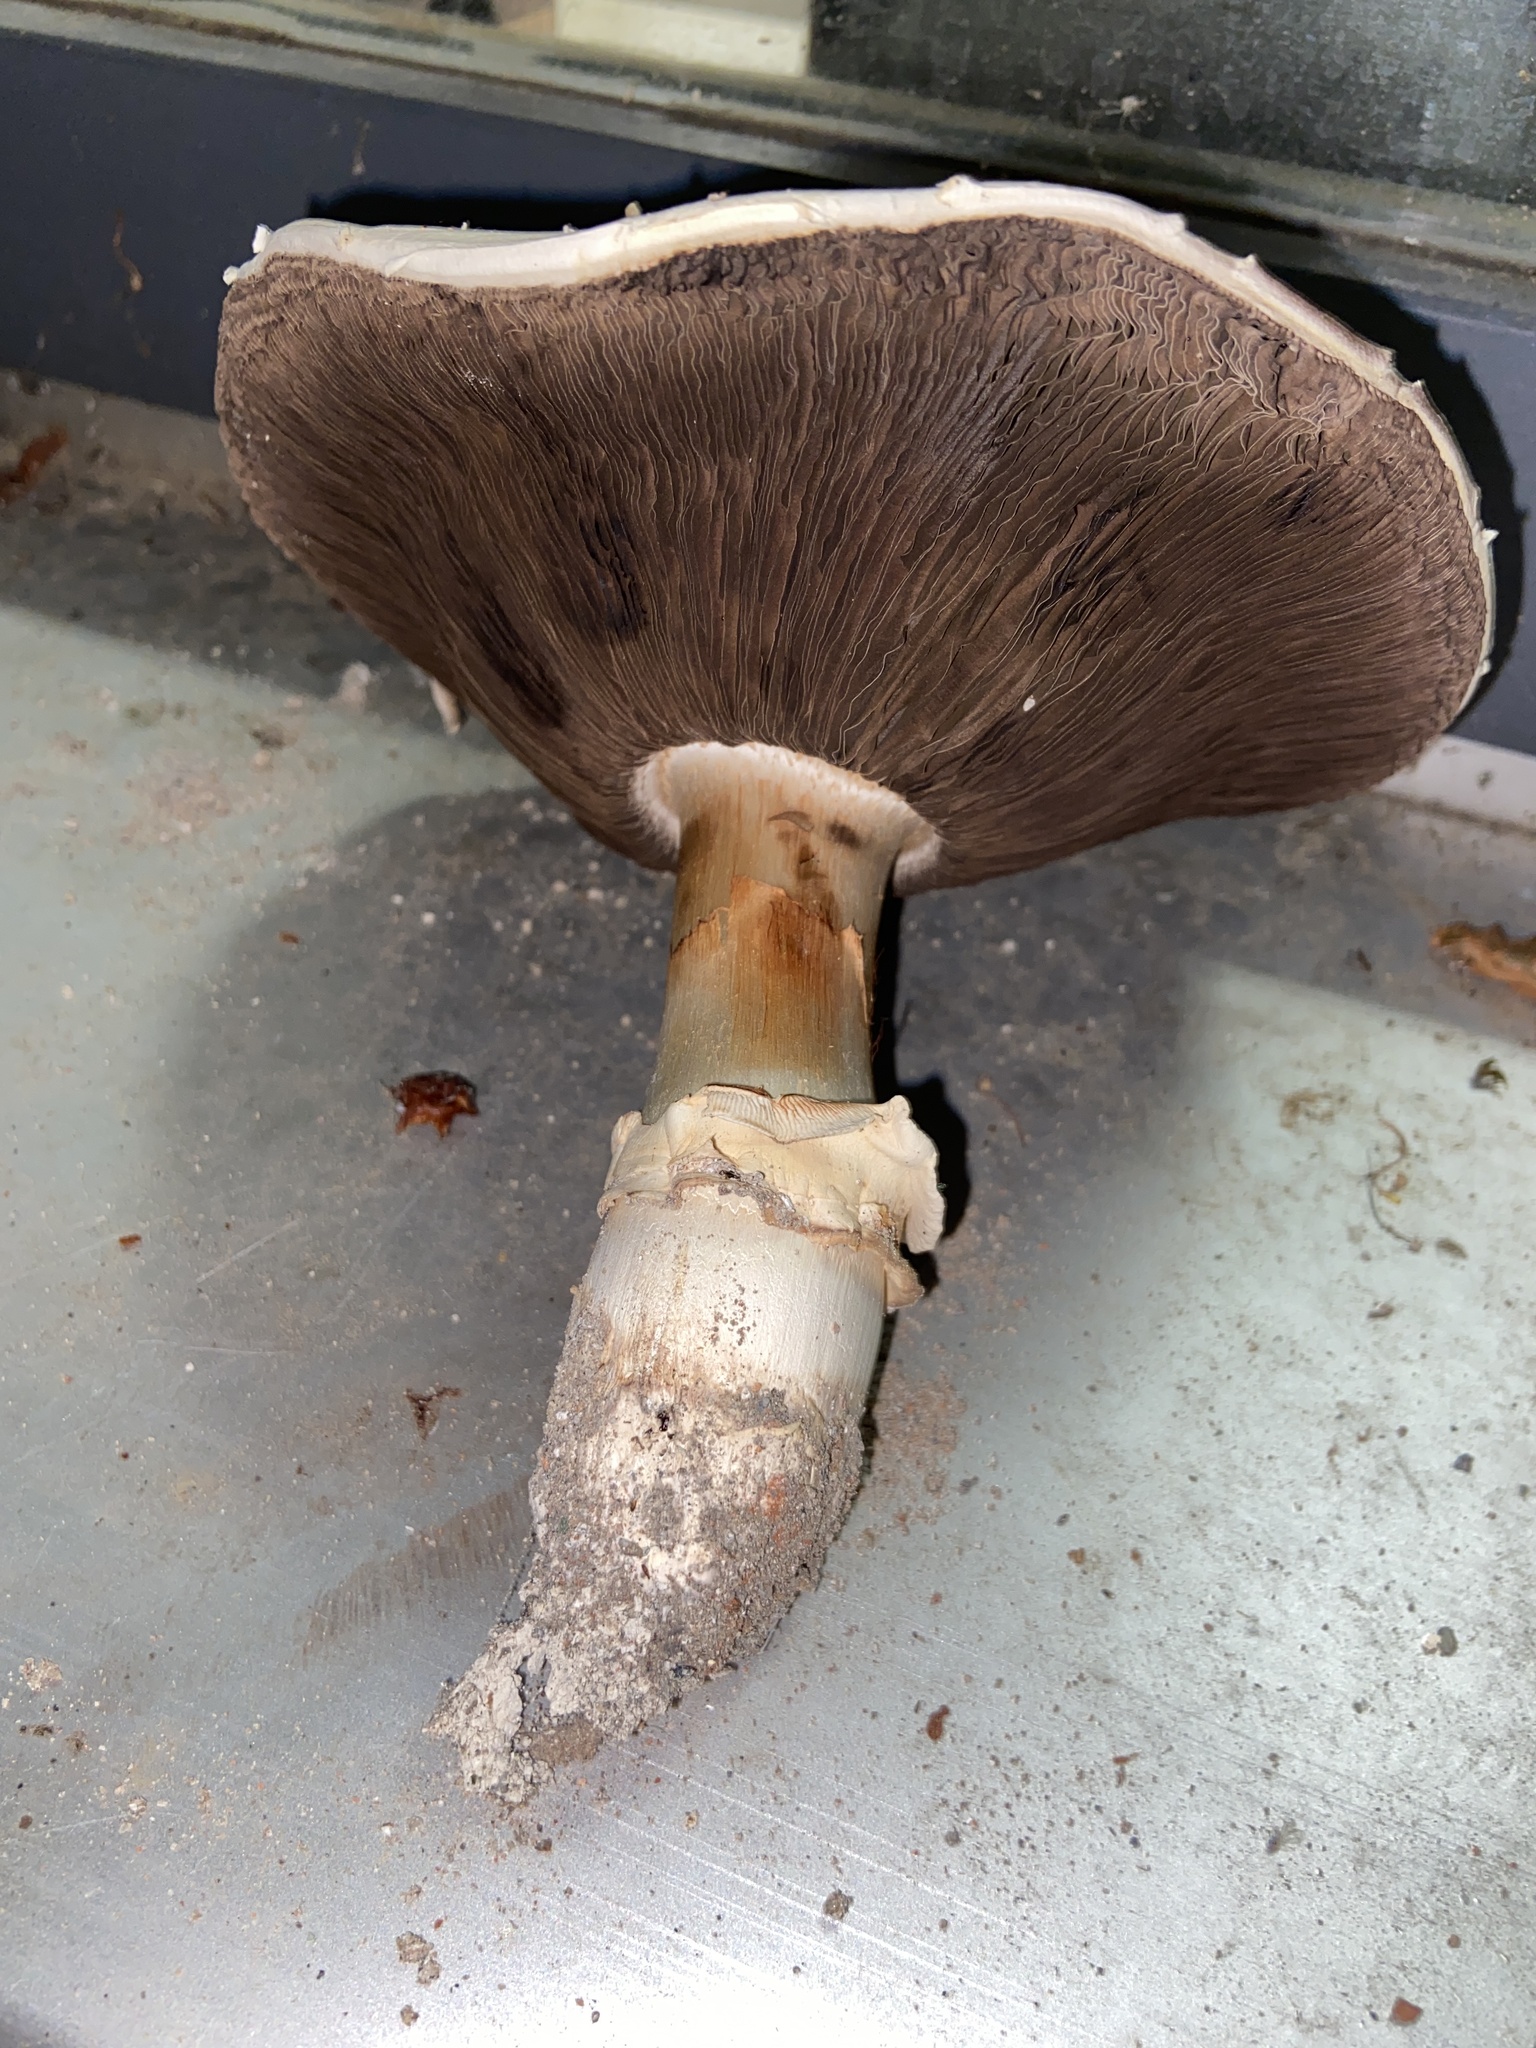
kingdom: Fungi
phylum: Basidiomycota
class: Agaricomycetes
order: Agaricales
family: Agaricaceae
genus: Agaricus
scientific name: Agaricus bitorquis
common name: Pavement mushroom
